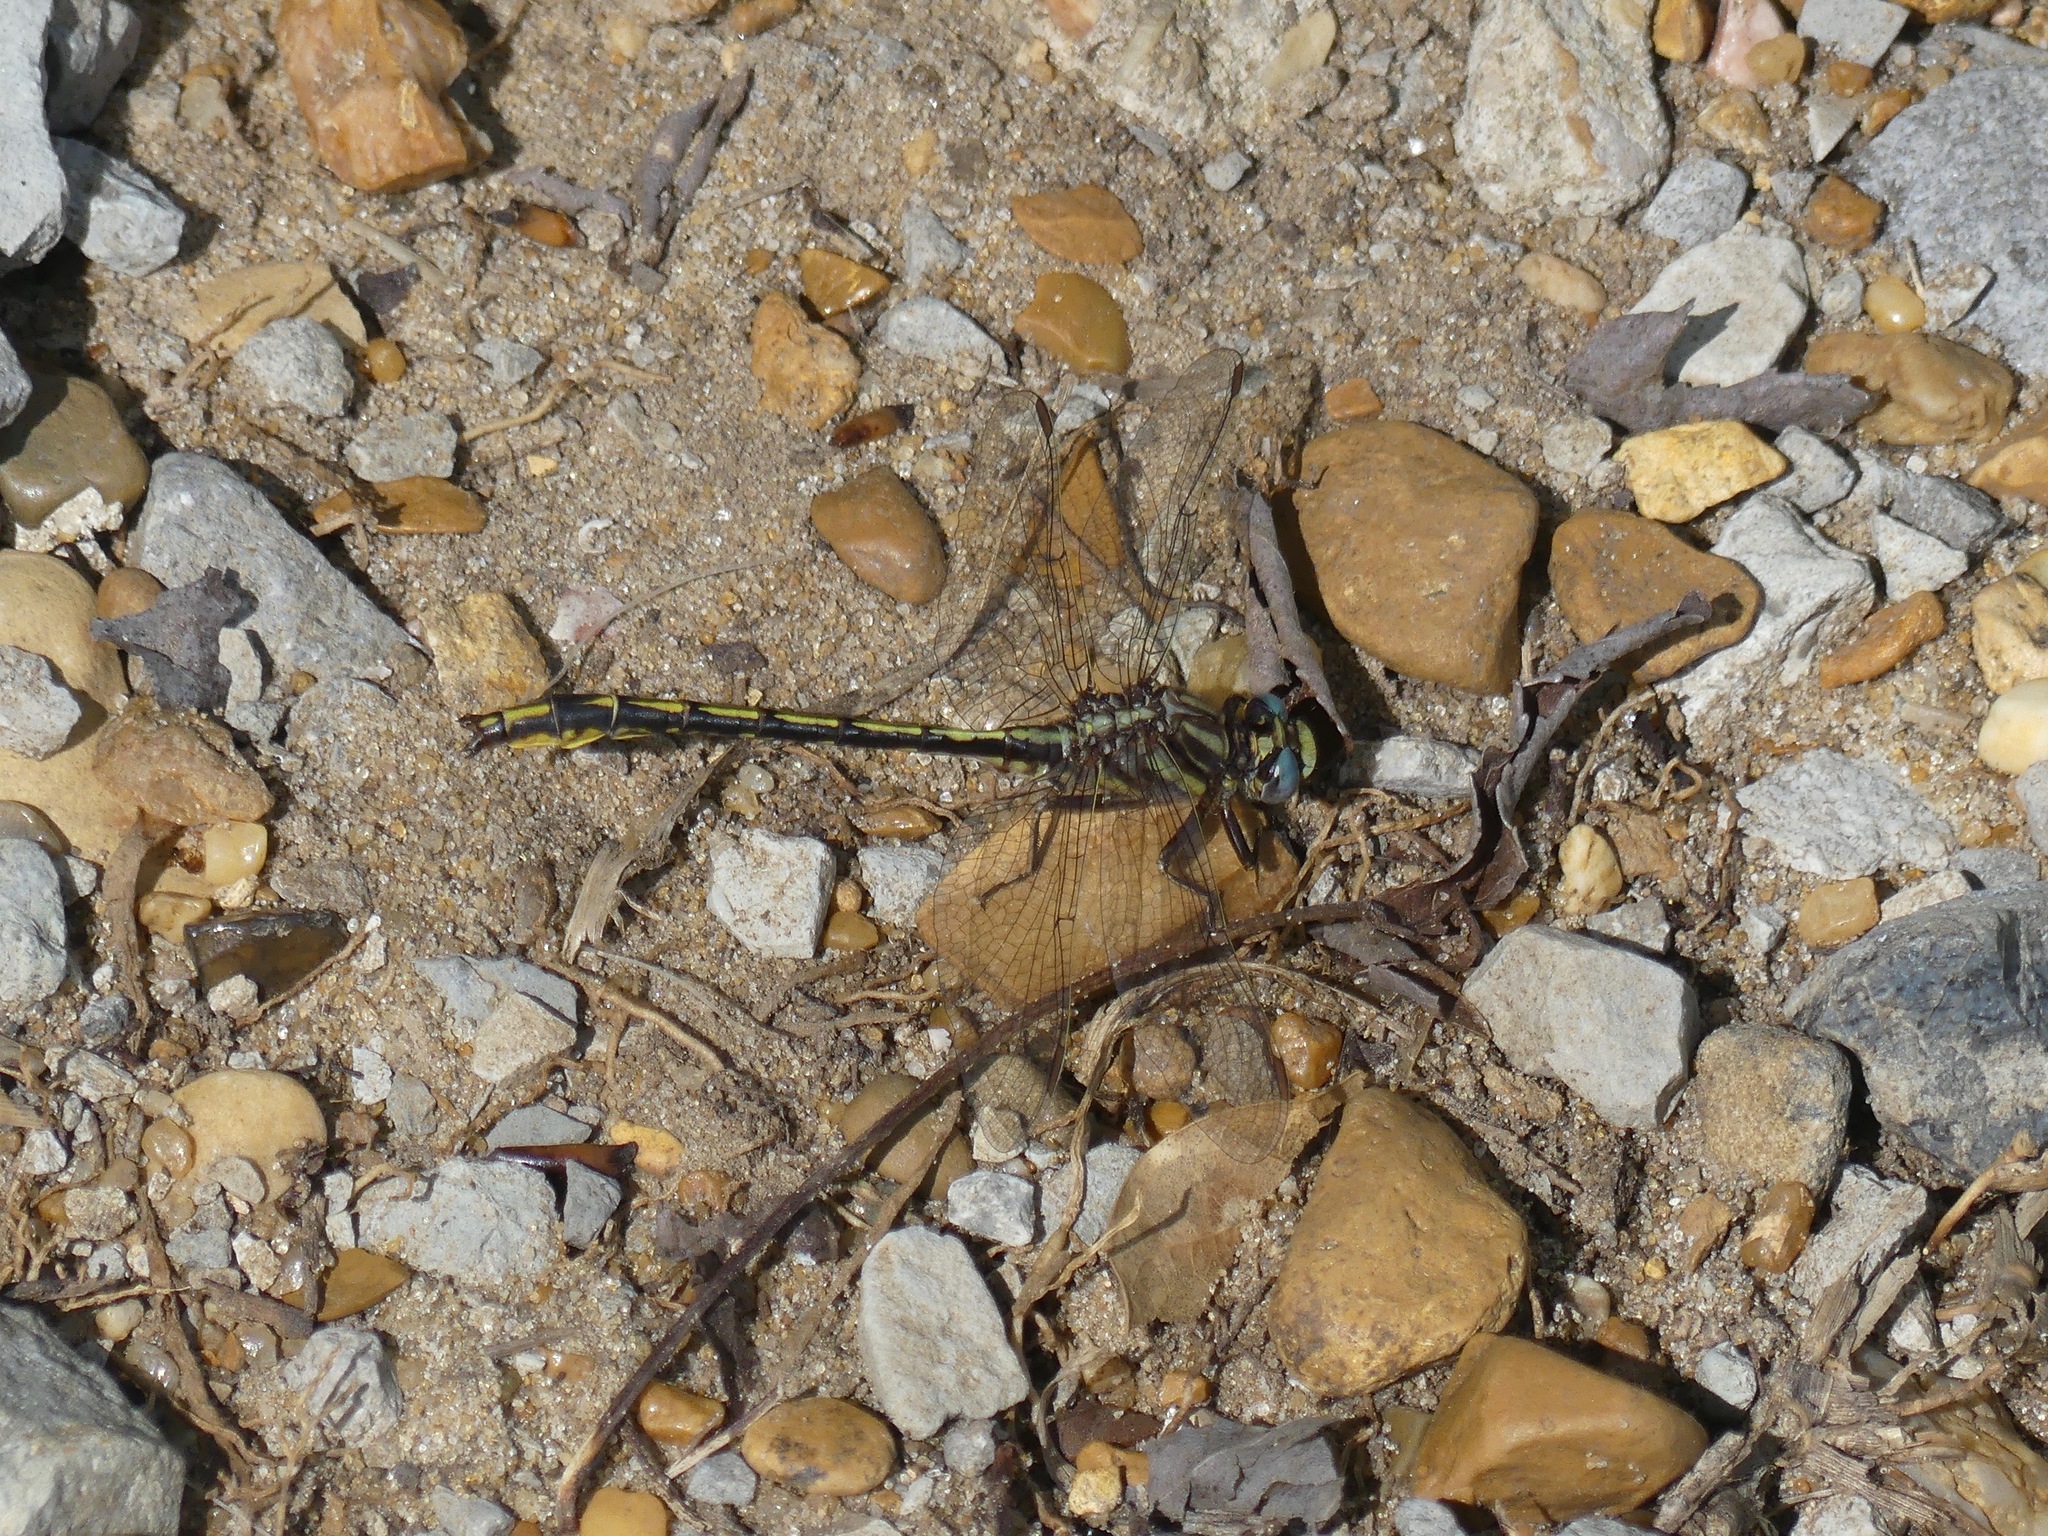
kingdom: Animalia
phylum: Arthropoda
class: Insecta
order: Odonata
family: Gomphidae
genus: Phanogomphus
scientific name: Phanogomphus oklahomensis
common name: Oklahoma clubtail
